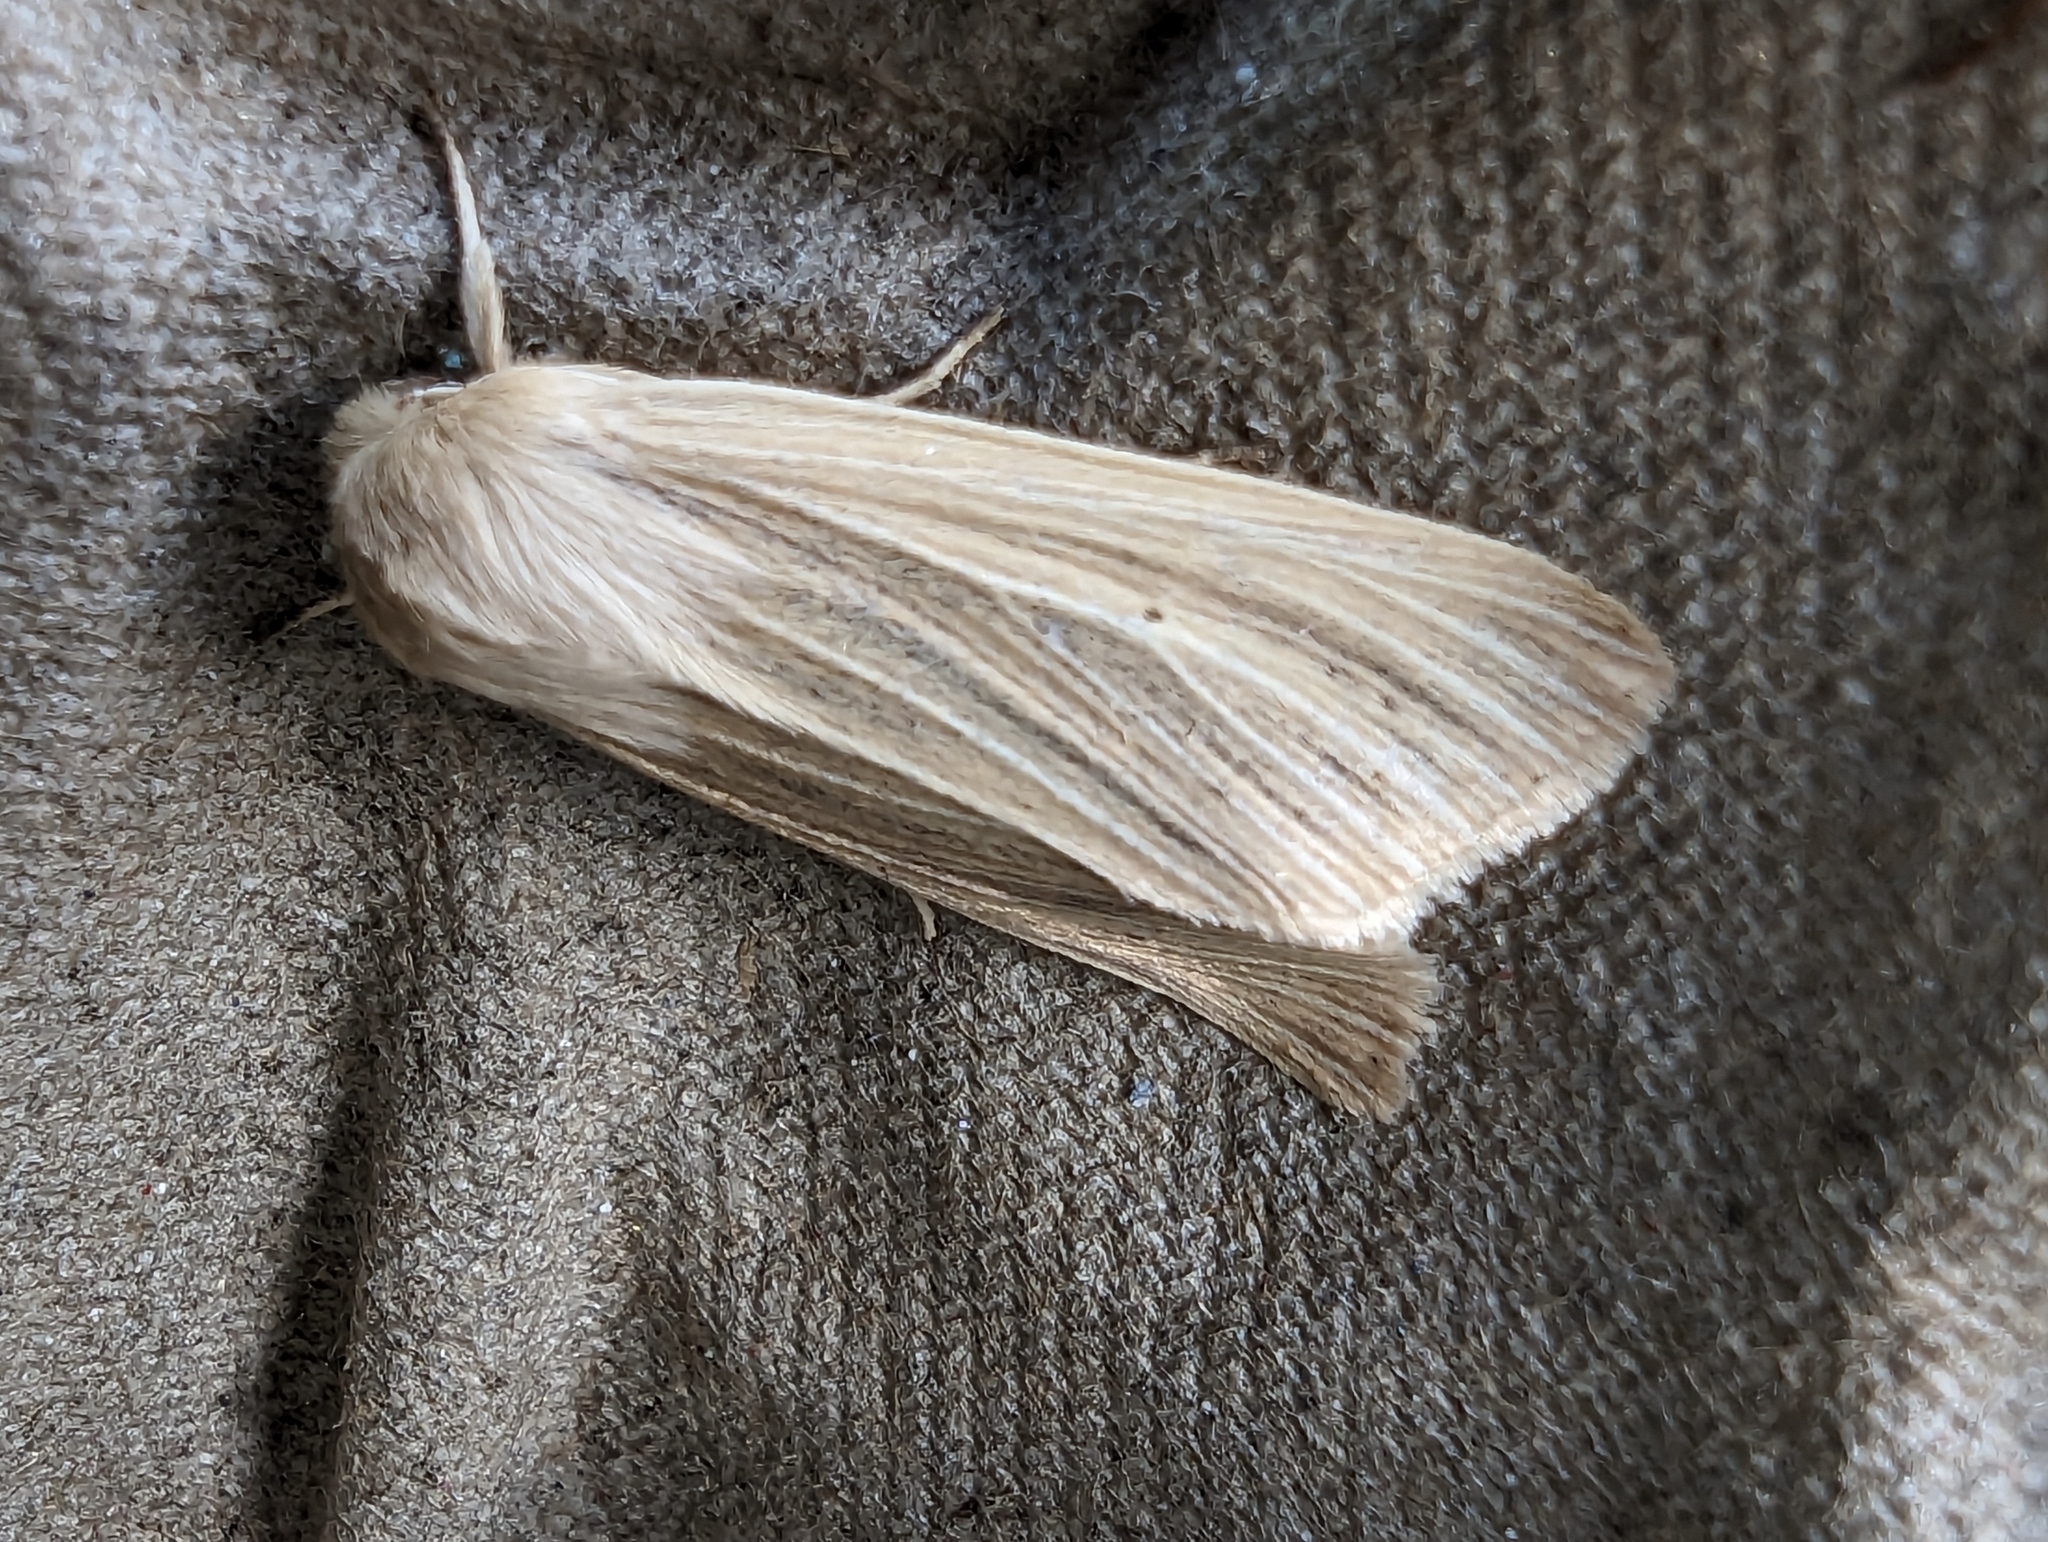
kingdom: Animalia
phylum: Arthropoda
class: Insecta
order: Lepidoptera
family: Noctuidae
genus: Mythimna
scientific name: Mythimna pallens
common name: Common wainscot
